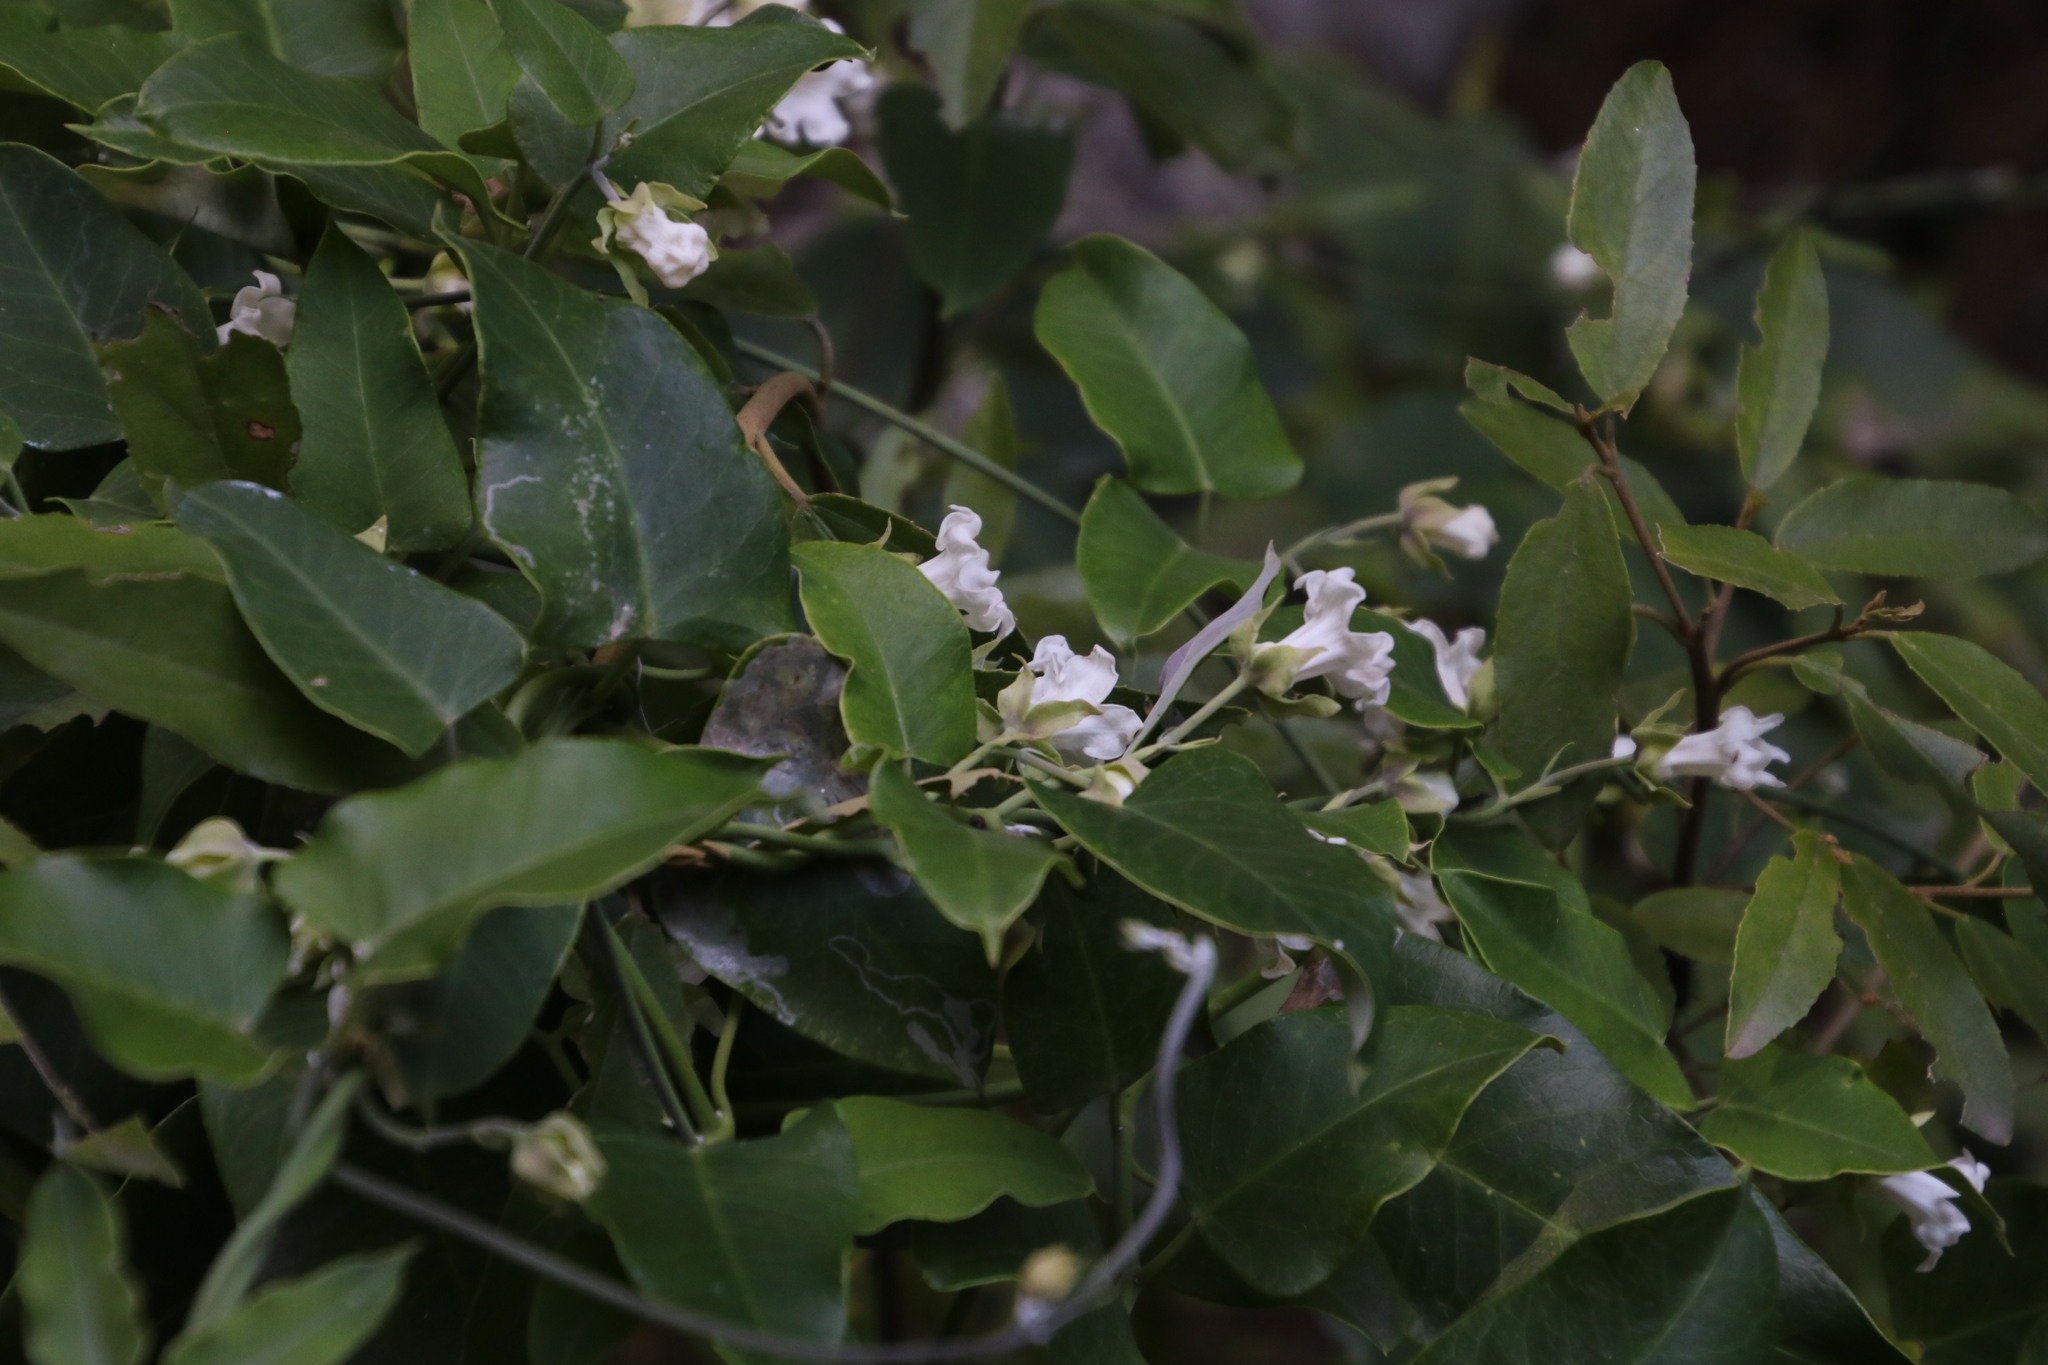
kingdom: Plantae
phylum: Tracheophyta
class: Magnoliopsida
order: Gentianales
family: Apocynaceae
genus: Araujia
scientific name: Araujia sericifera
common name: White bladderflower
